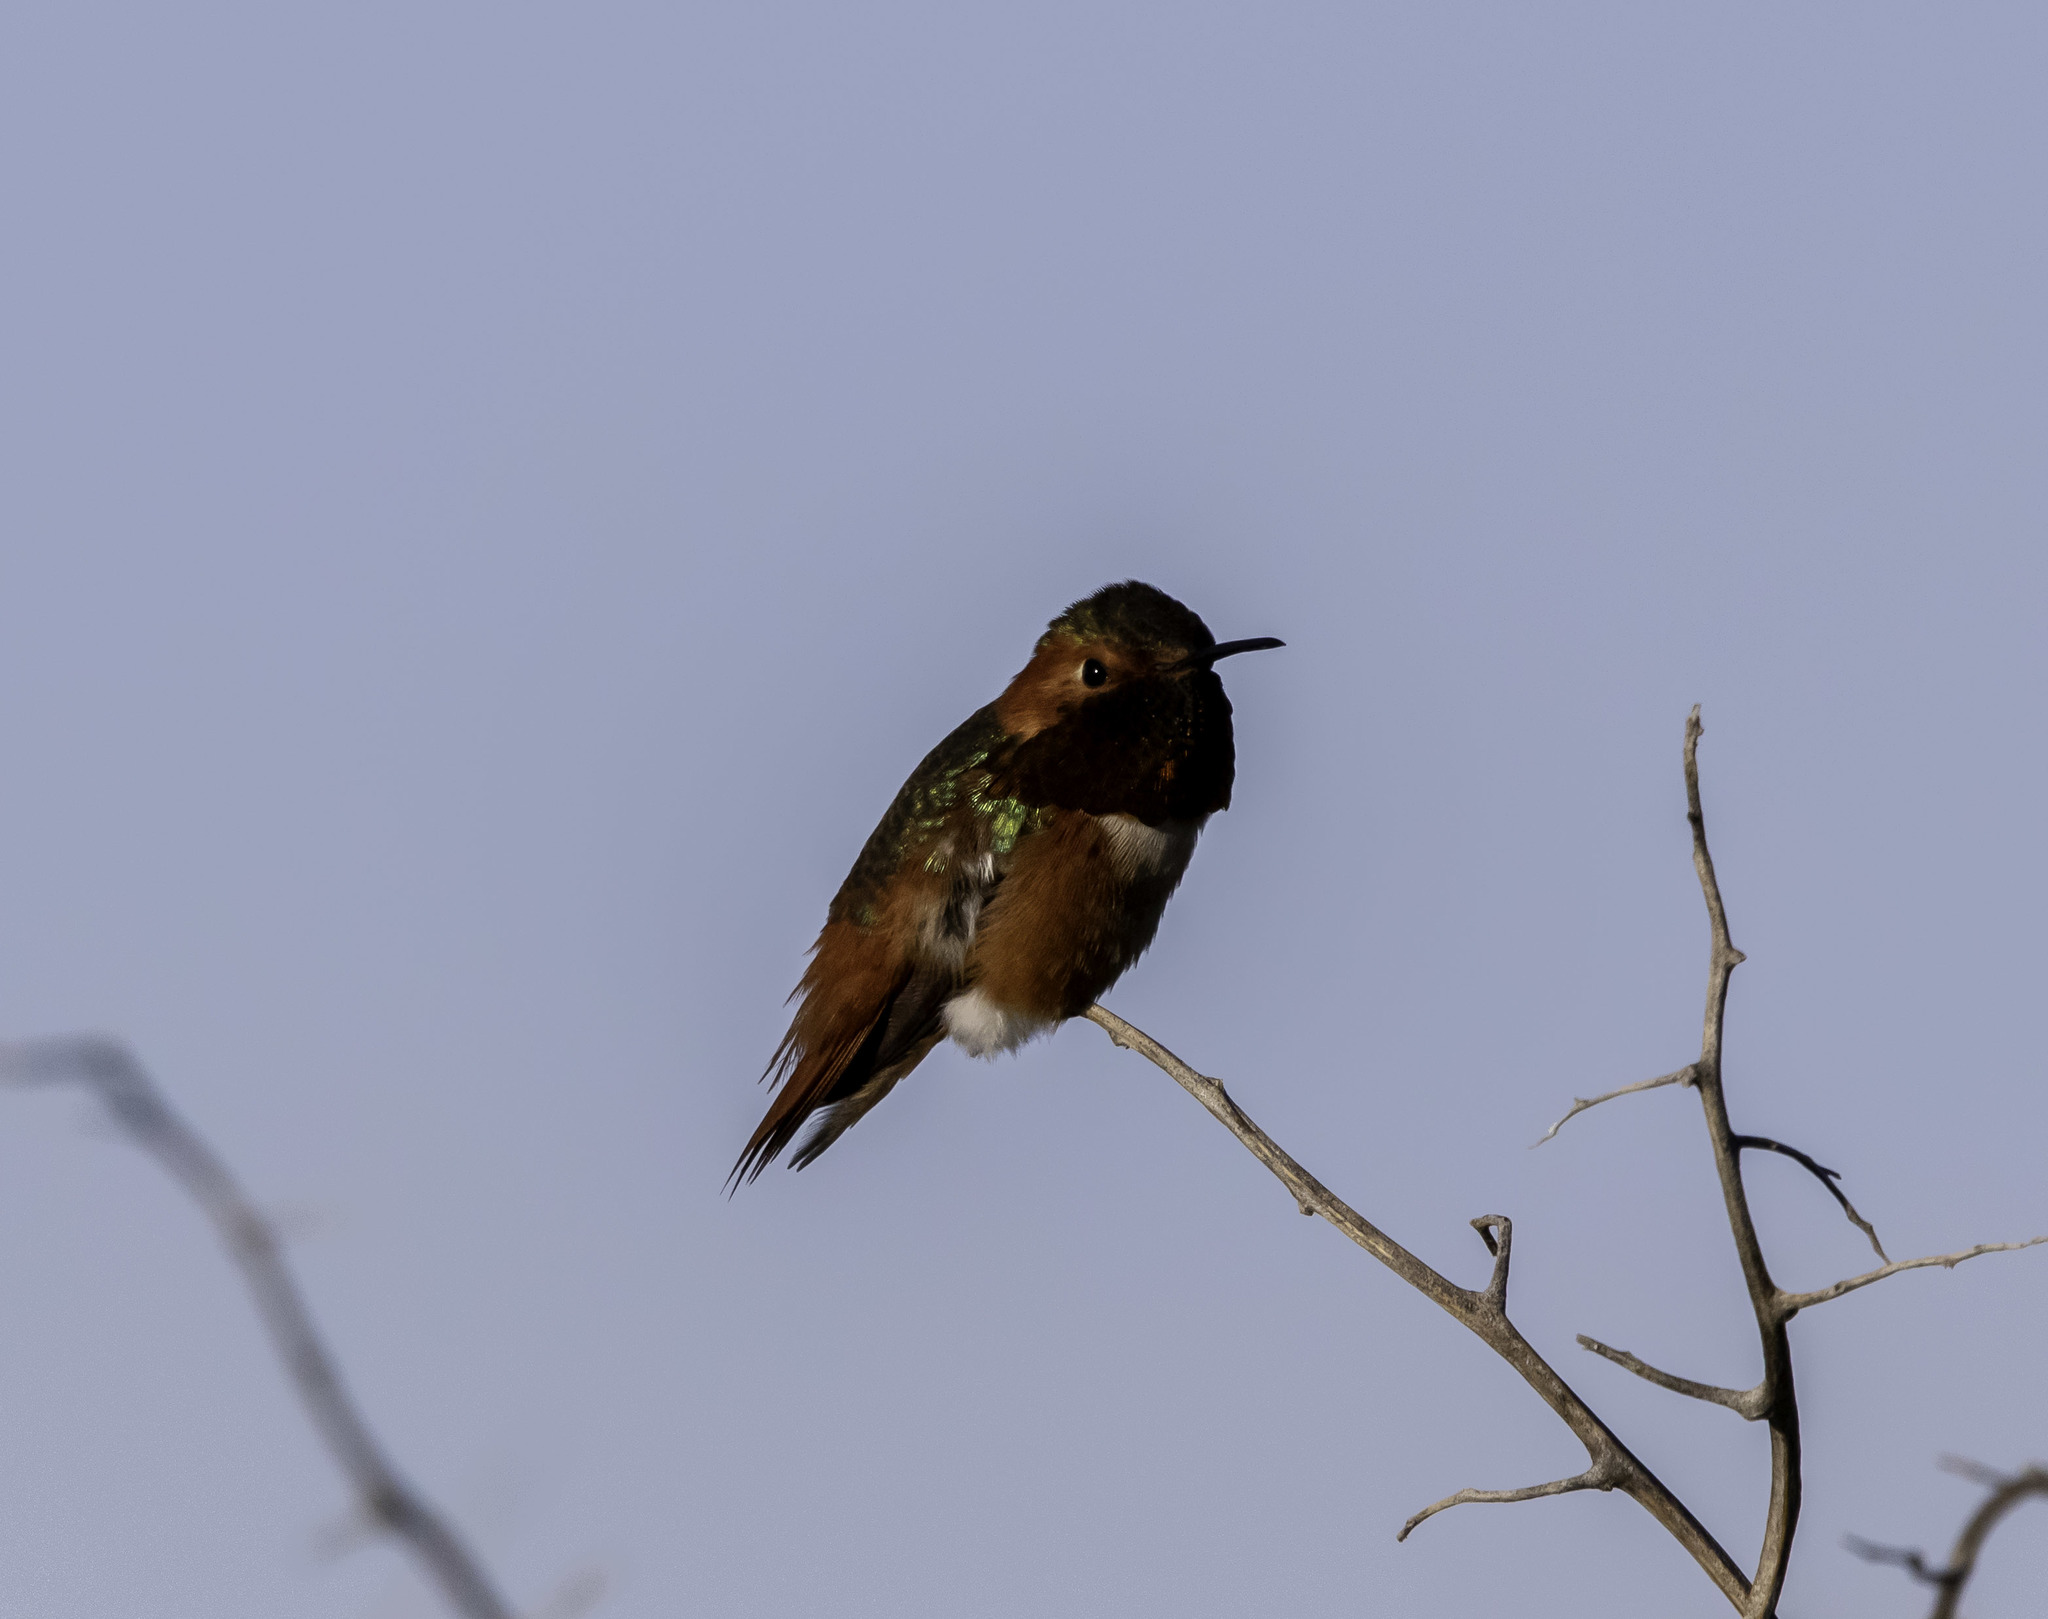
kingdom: Animalia
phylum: Chordata
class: Aves
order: Apodiformes
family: Trochilidae
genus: Selasphorus
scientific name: Selasphorus sasin
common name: Allen's hummingbird
